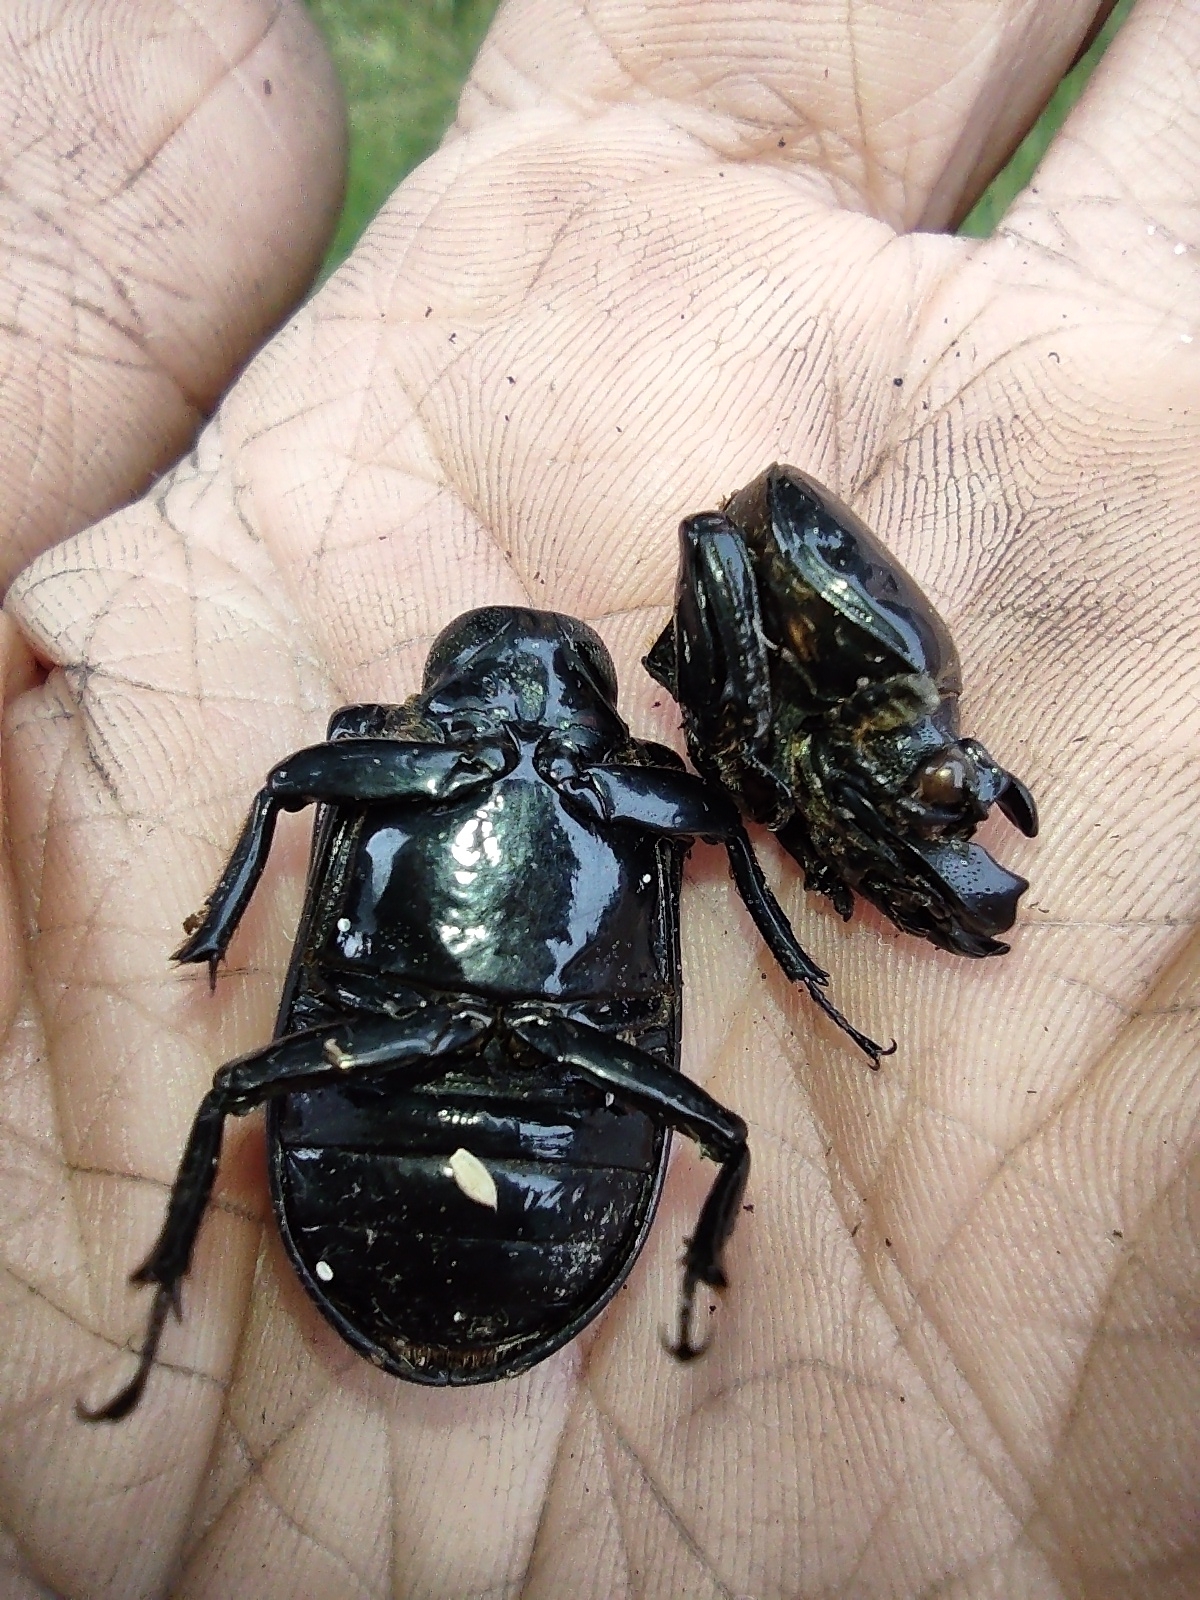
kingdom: Animalia
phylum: Arthropoda
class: Insecta
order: Coleoptera
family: Passalidae
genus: Odontotaenius
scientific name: Odontotaenius disjunctus
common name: Patent leather beetle
